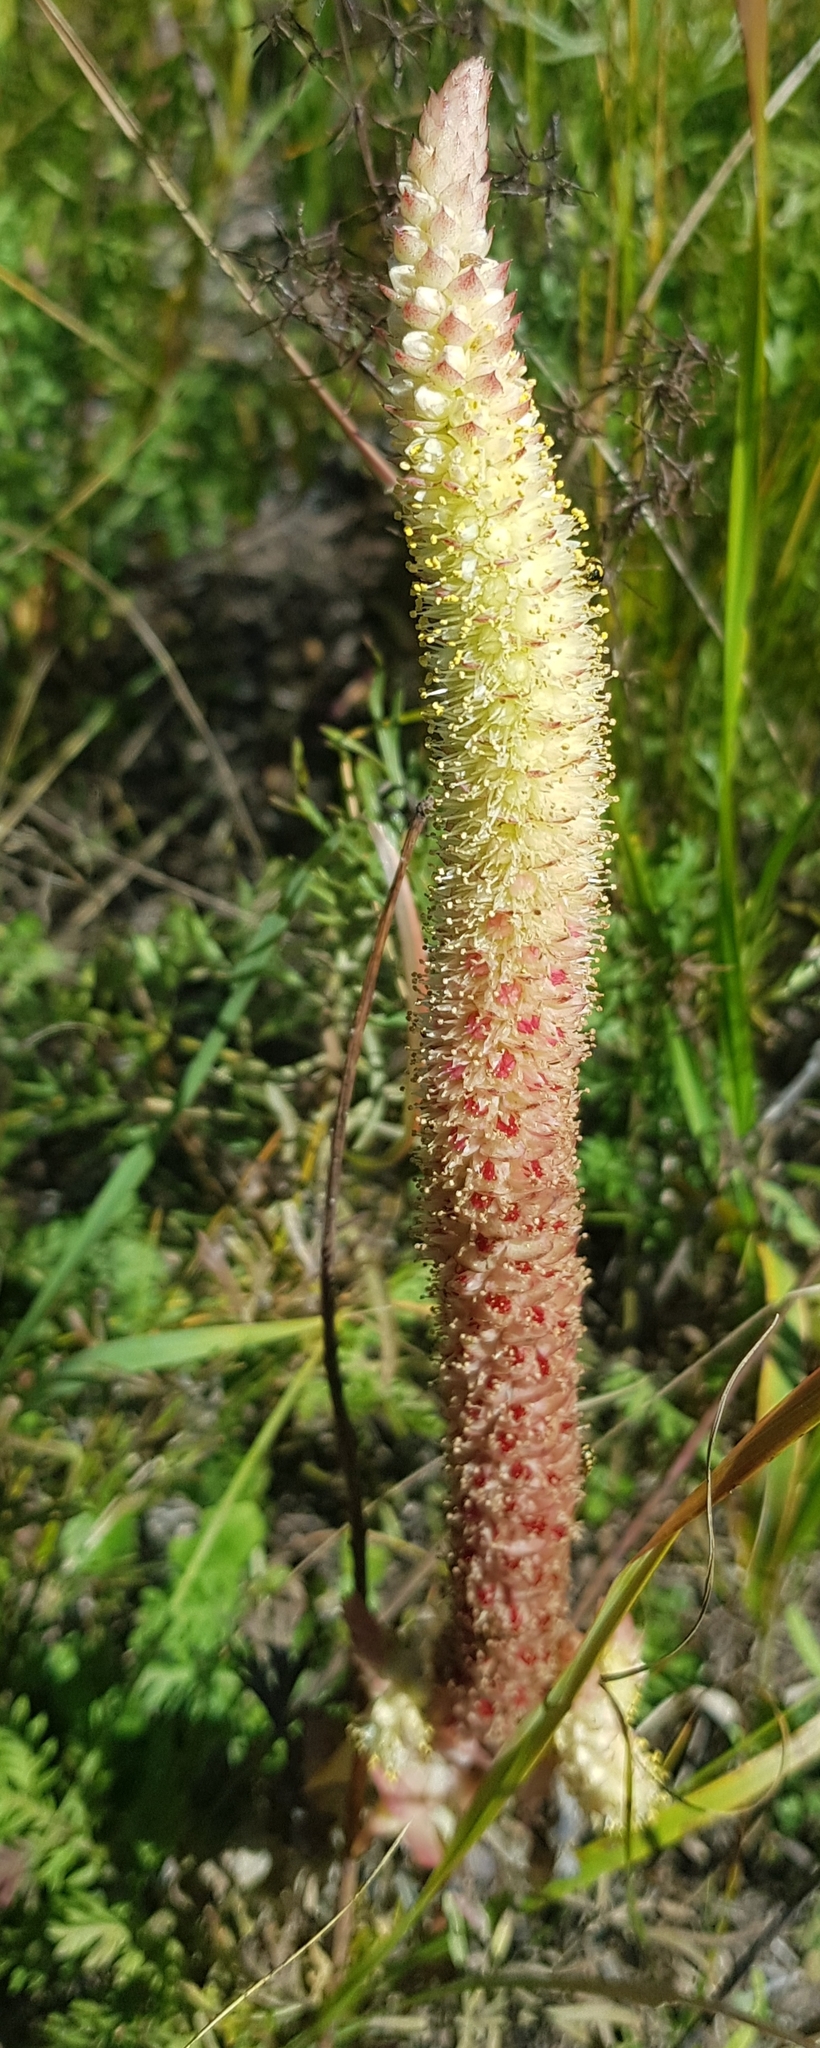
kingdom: Plantae
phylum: Tracheophyta
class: Magnoliopsida
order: Saxifragales
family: Crassulaceae
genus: Orostachys
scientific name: Orostachys malacophylla
